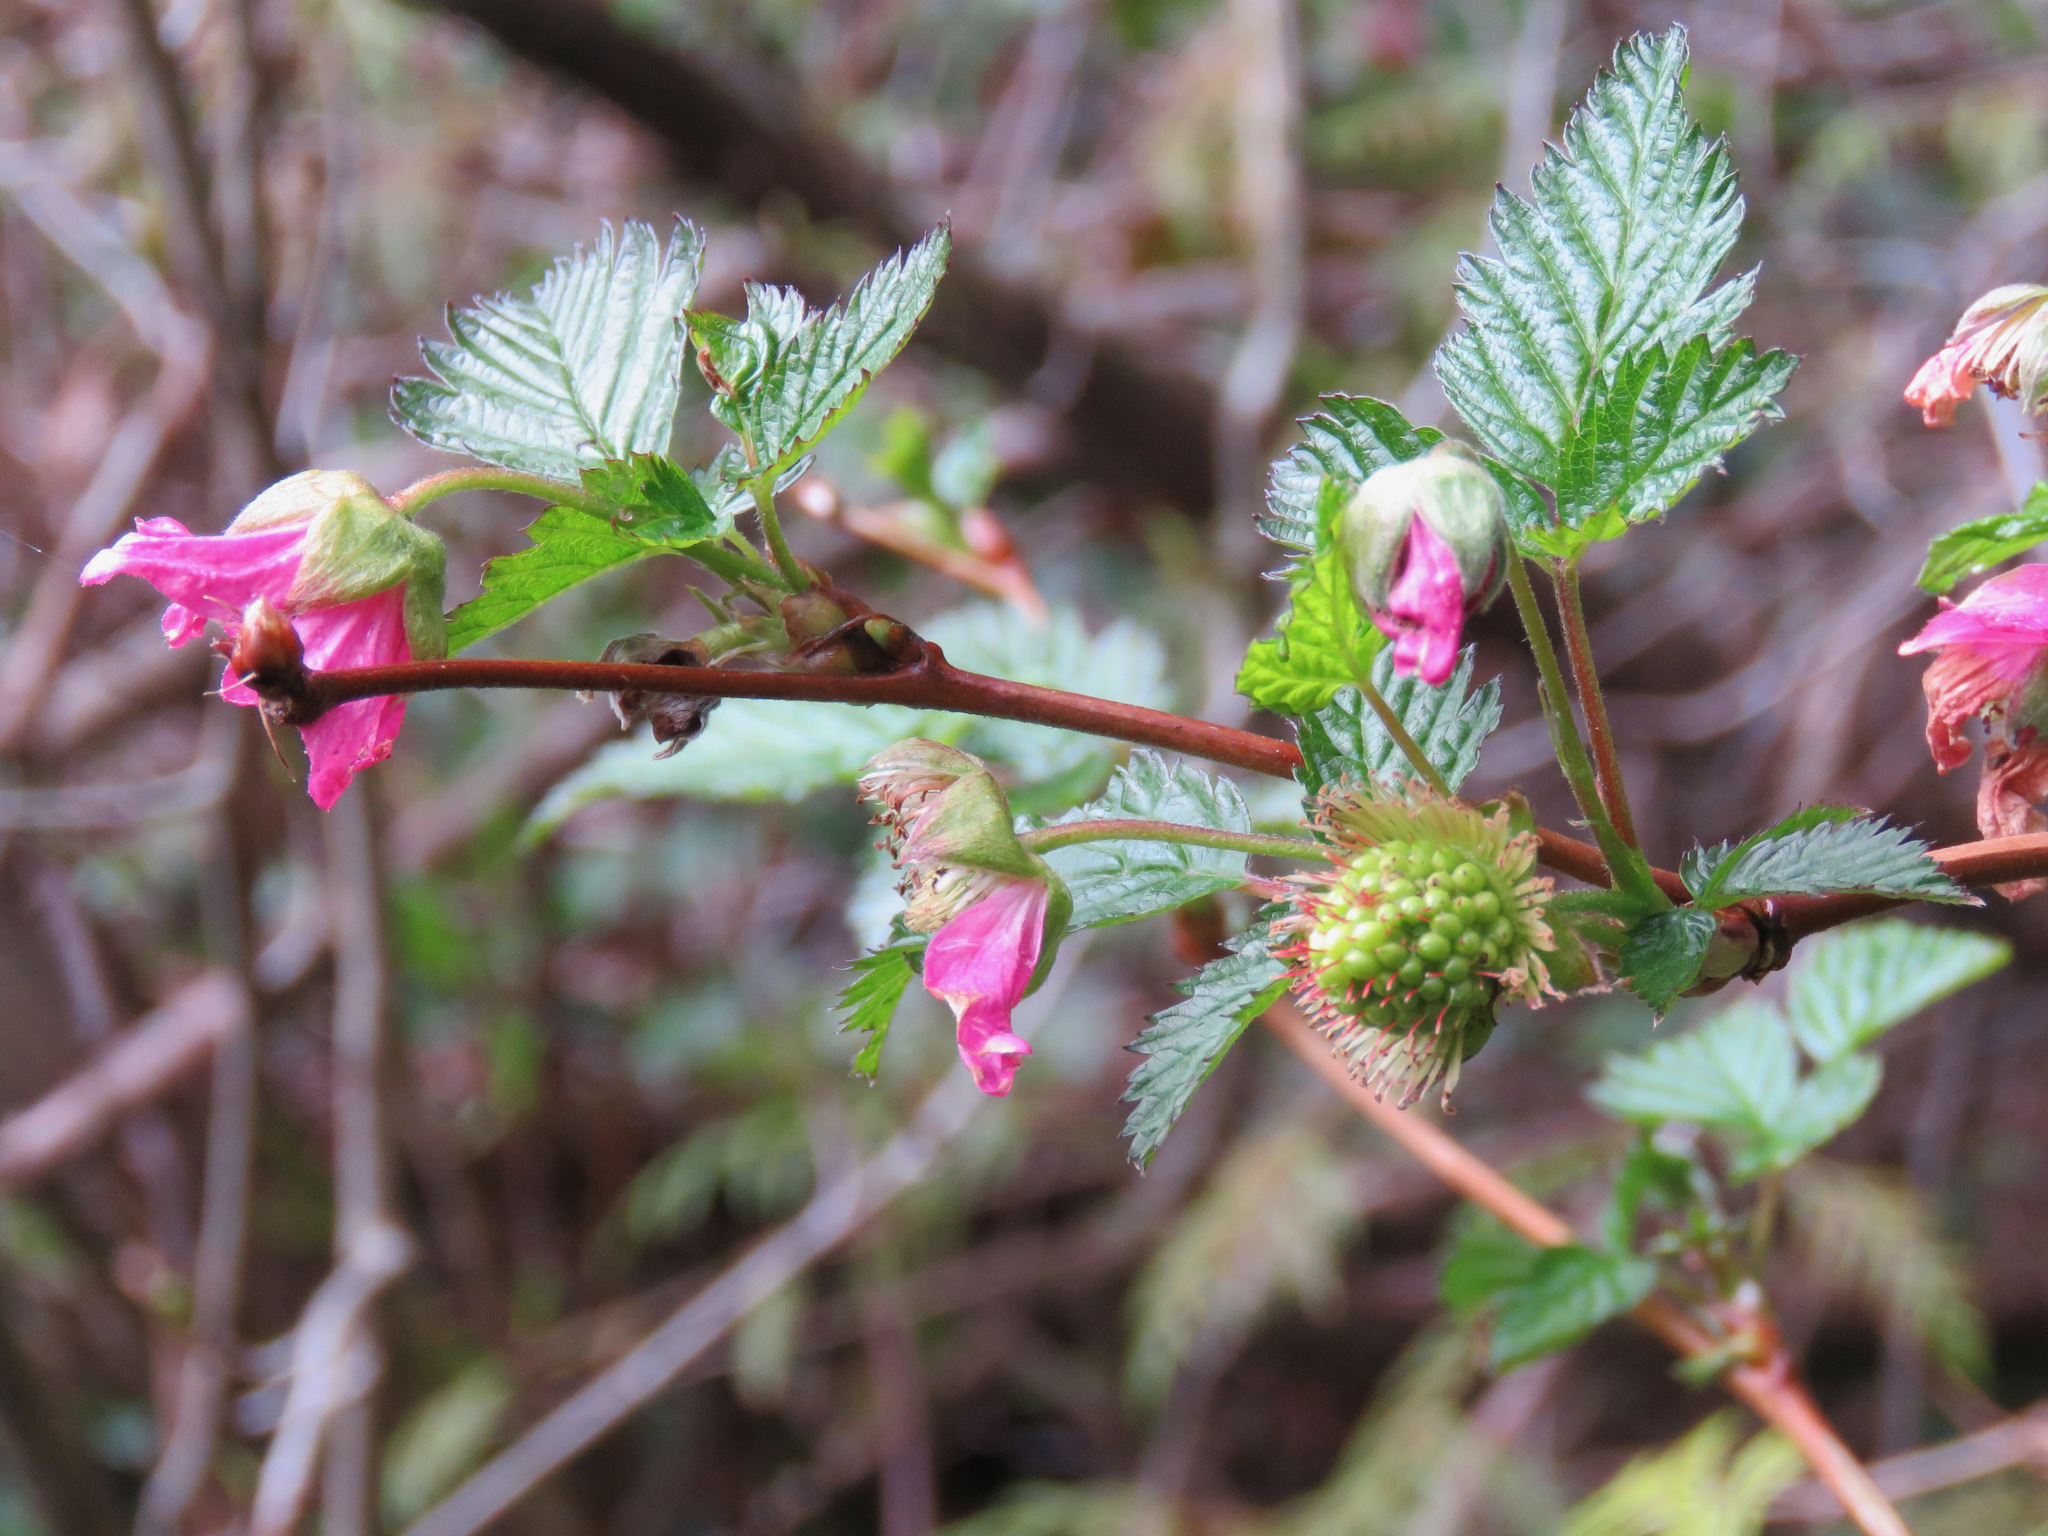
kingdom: Plantae
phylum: Tracheophyta
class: Magnoliopsida
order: Rosales
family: Rosaceae
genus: Rubus
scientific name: Rubus spectabilis
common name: Salmonberry
